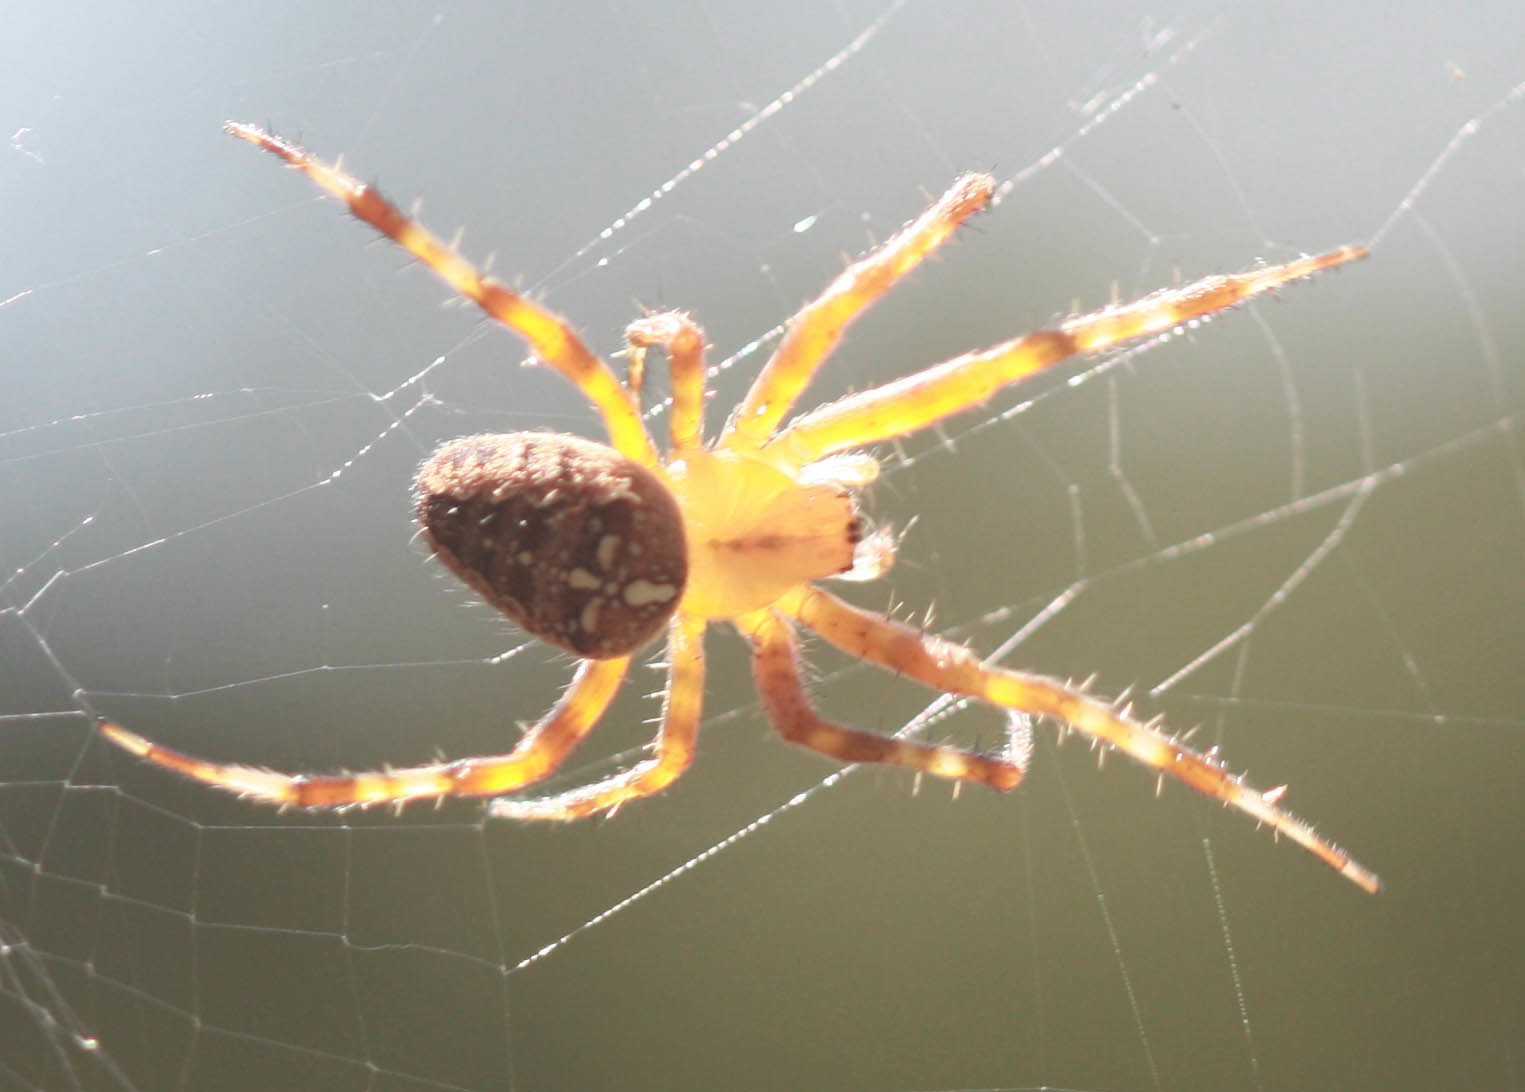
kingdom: Animalia
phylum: Arthropoda
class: Arachnida
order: Araneae
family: Araneidae
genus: Araneus
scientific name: Araneus diadematus
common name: Cross orbweaver
